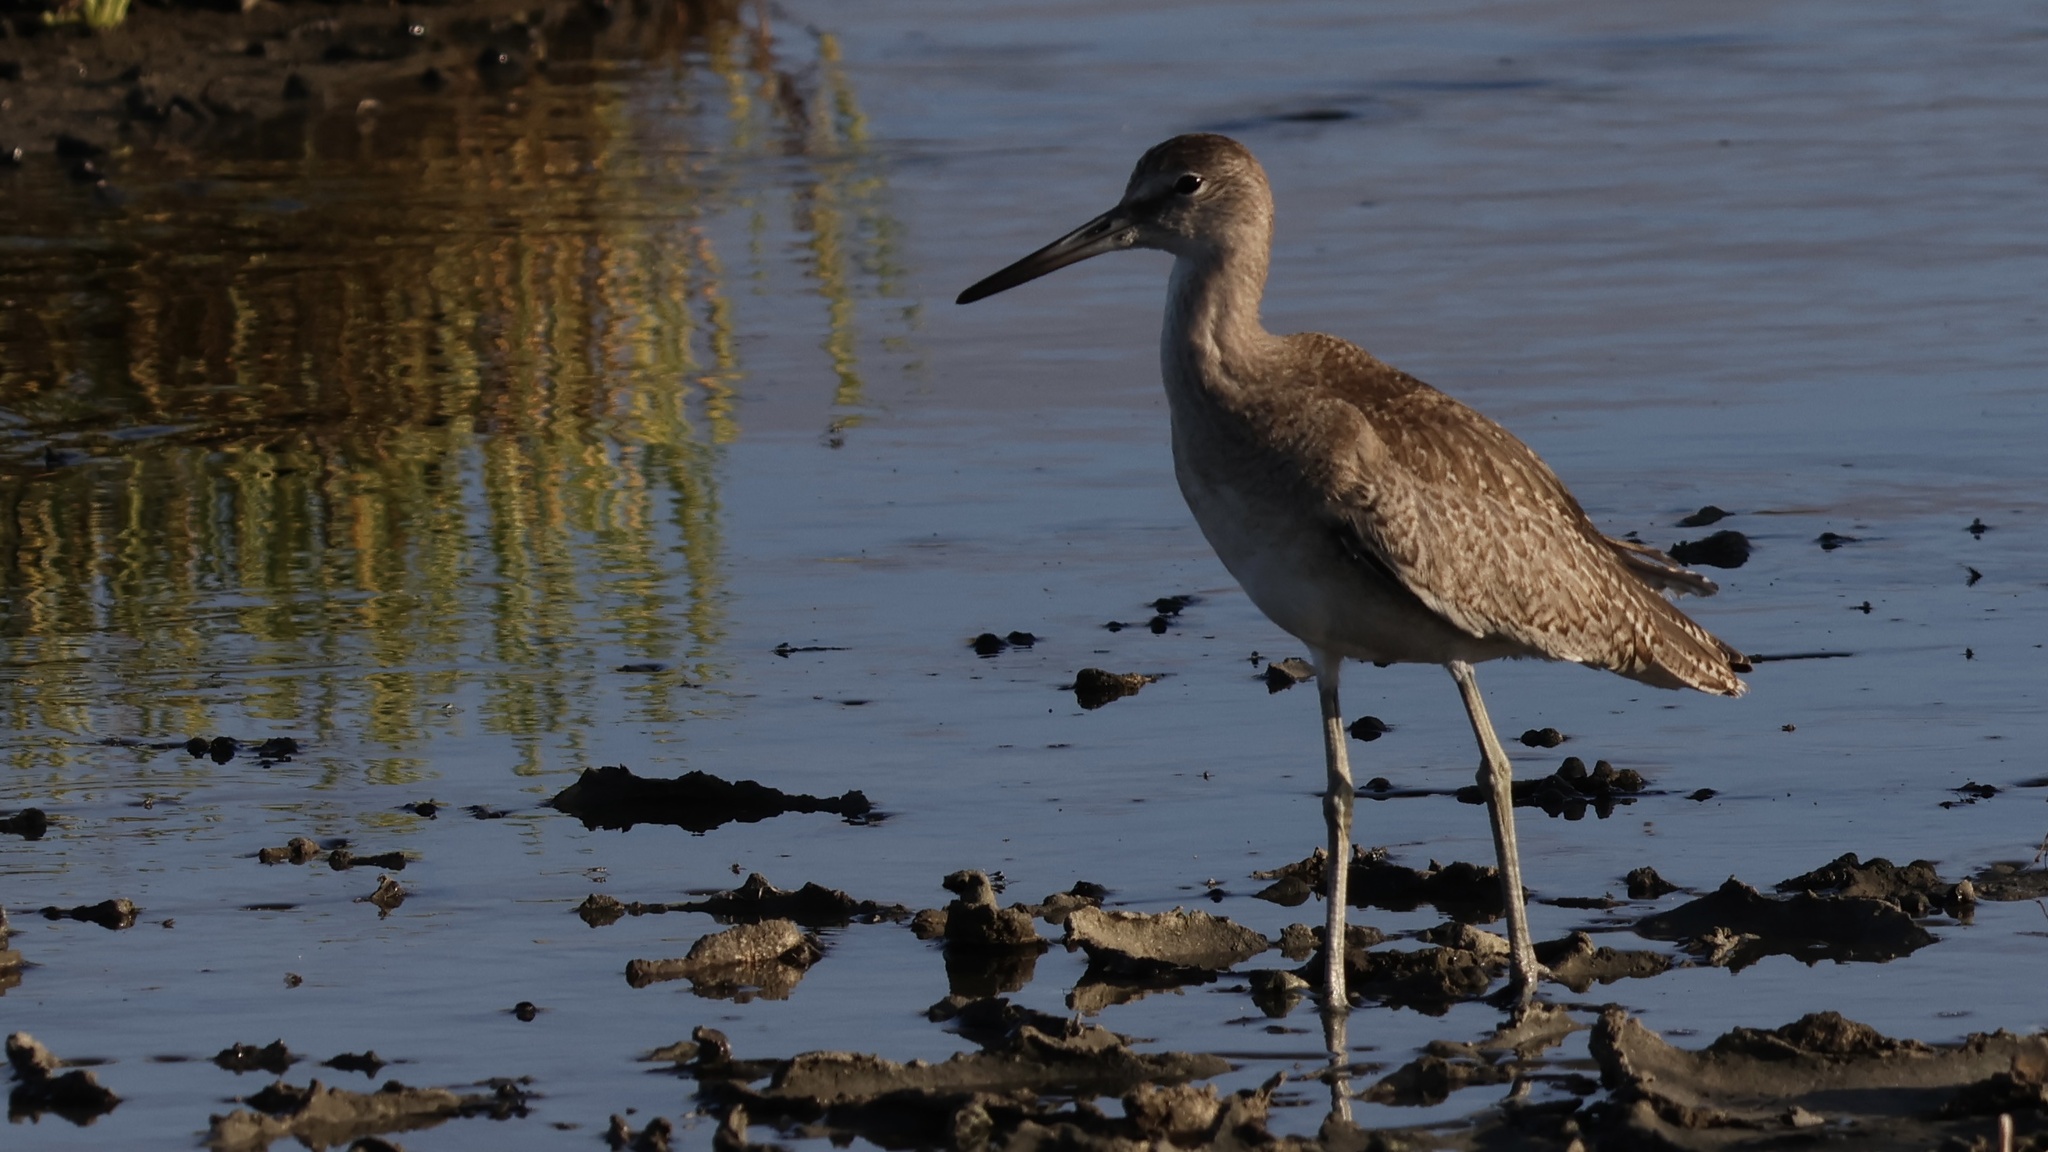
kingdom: Animalia
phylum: Chordata
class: Aves
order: Charadriiformes
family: Scolopacidae
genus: Tringa
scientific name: Tringa semipalmata
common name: Willet
